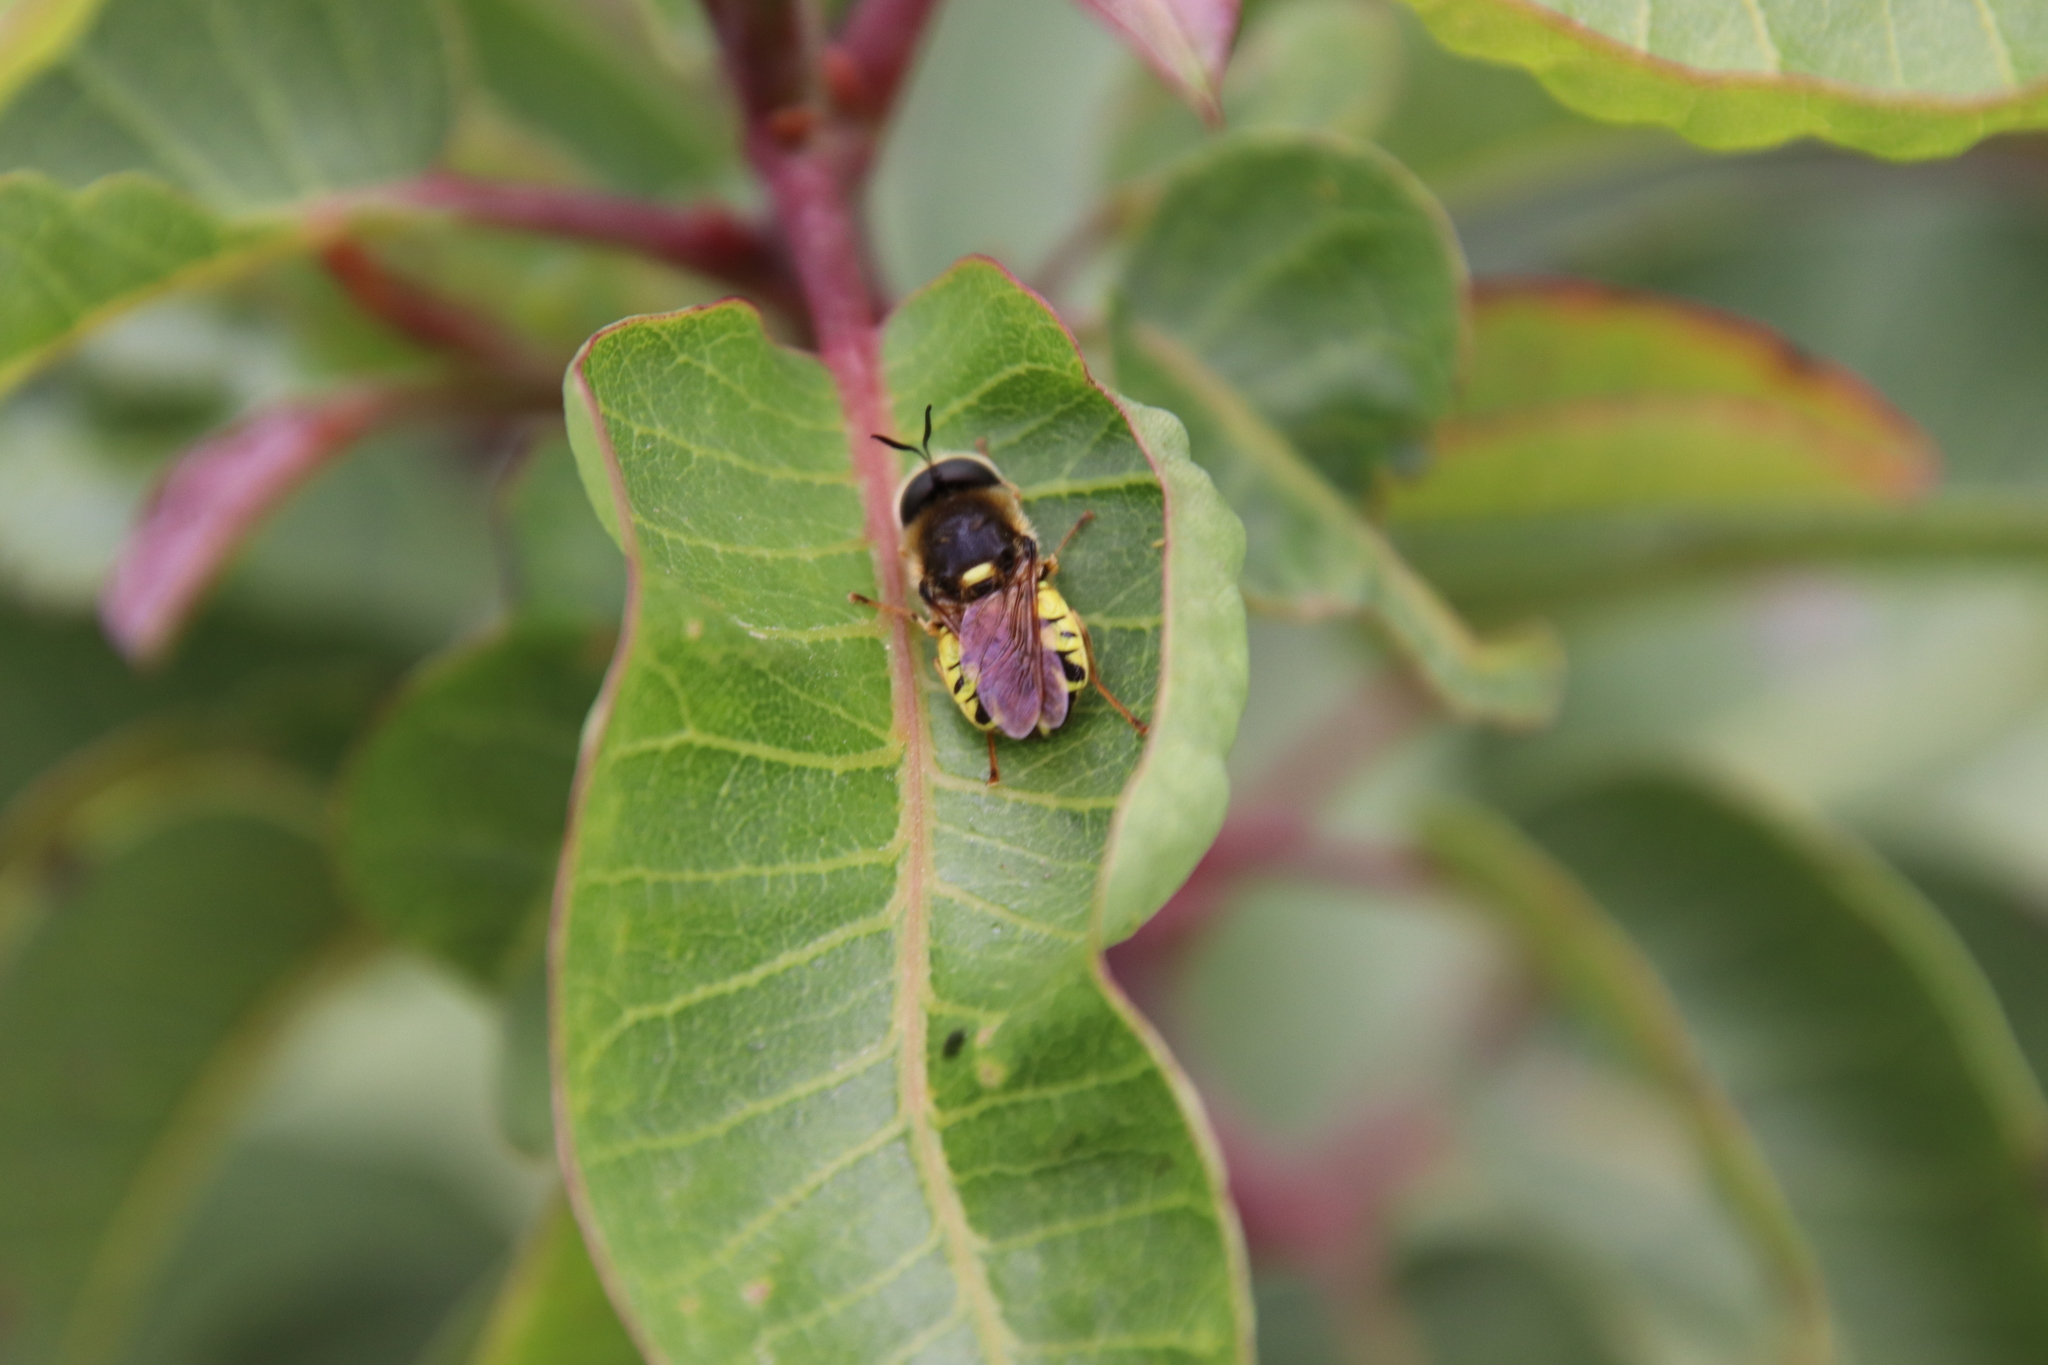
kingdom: Animalia
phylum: Arthropoda
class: Insecta
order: Diptera
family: Stratiomyidae
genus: Stratiomys
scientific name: Stratiomys maculosa
